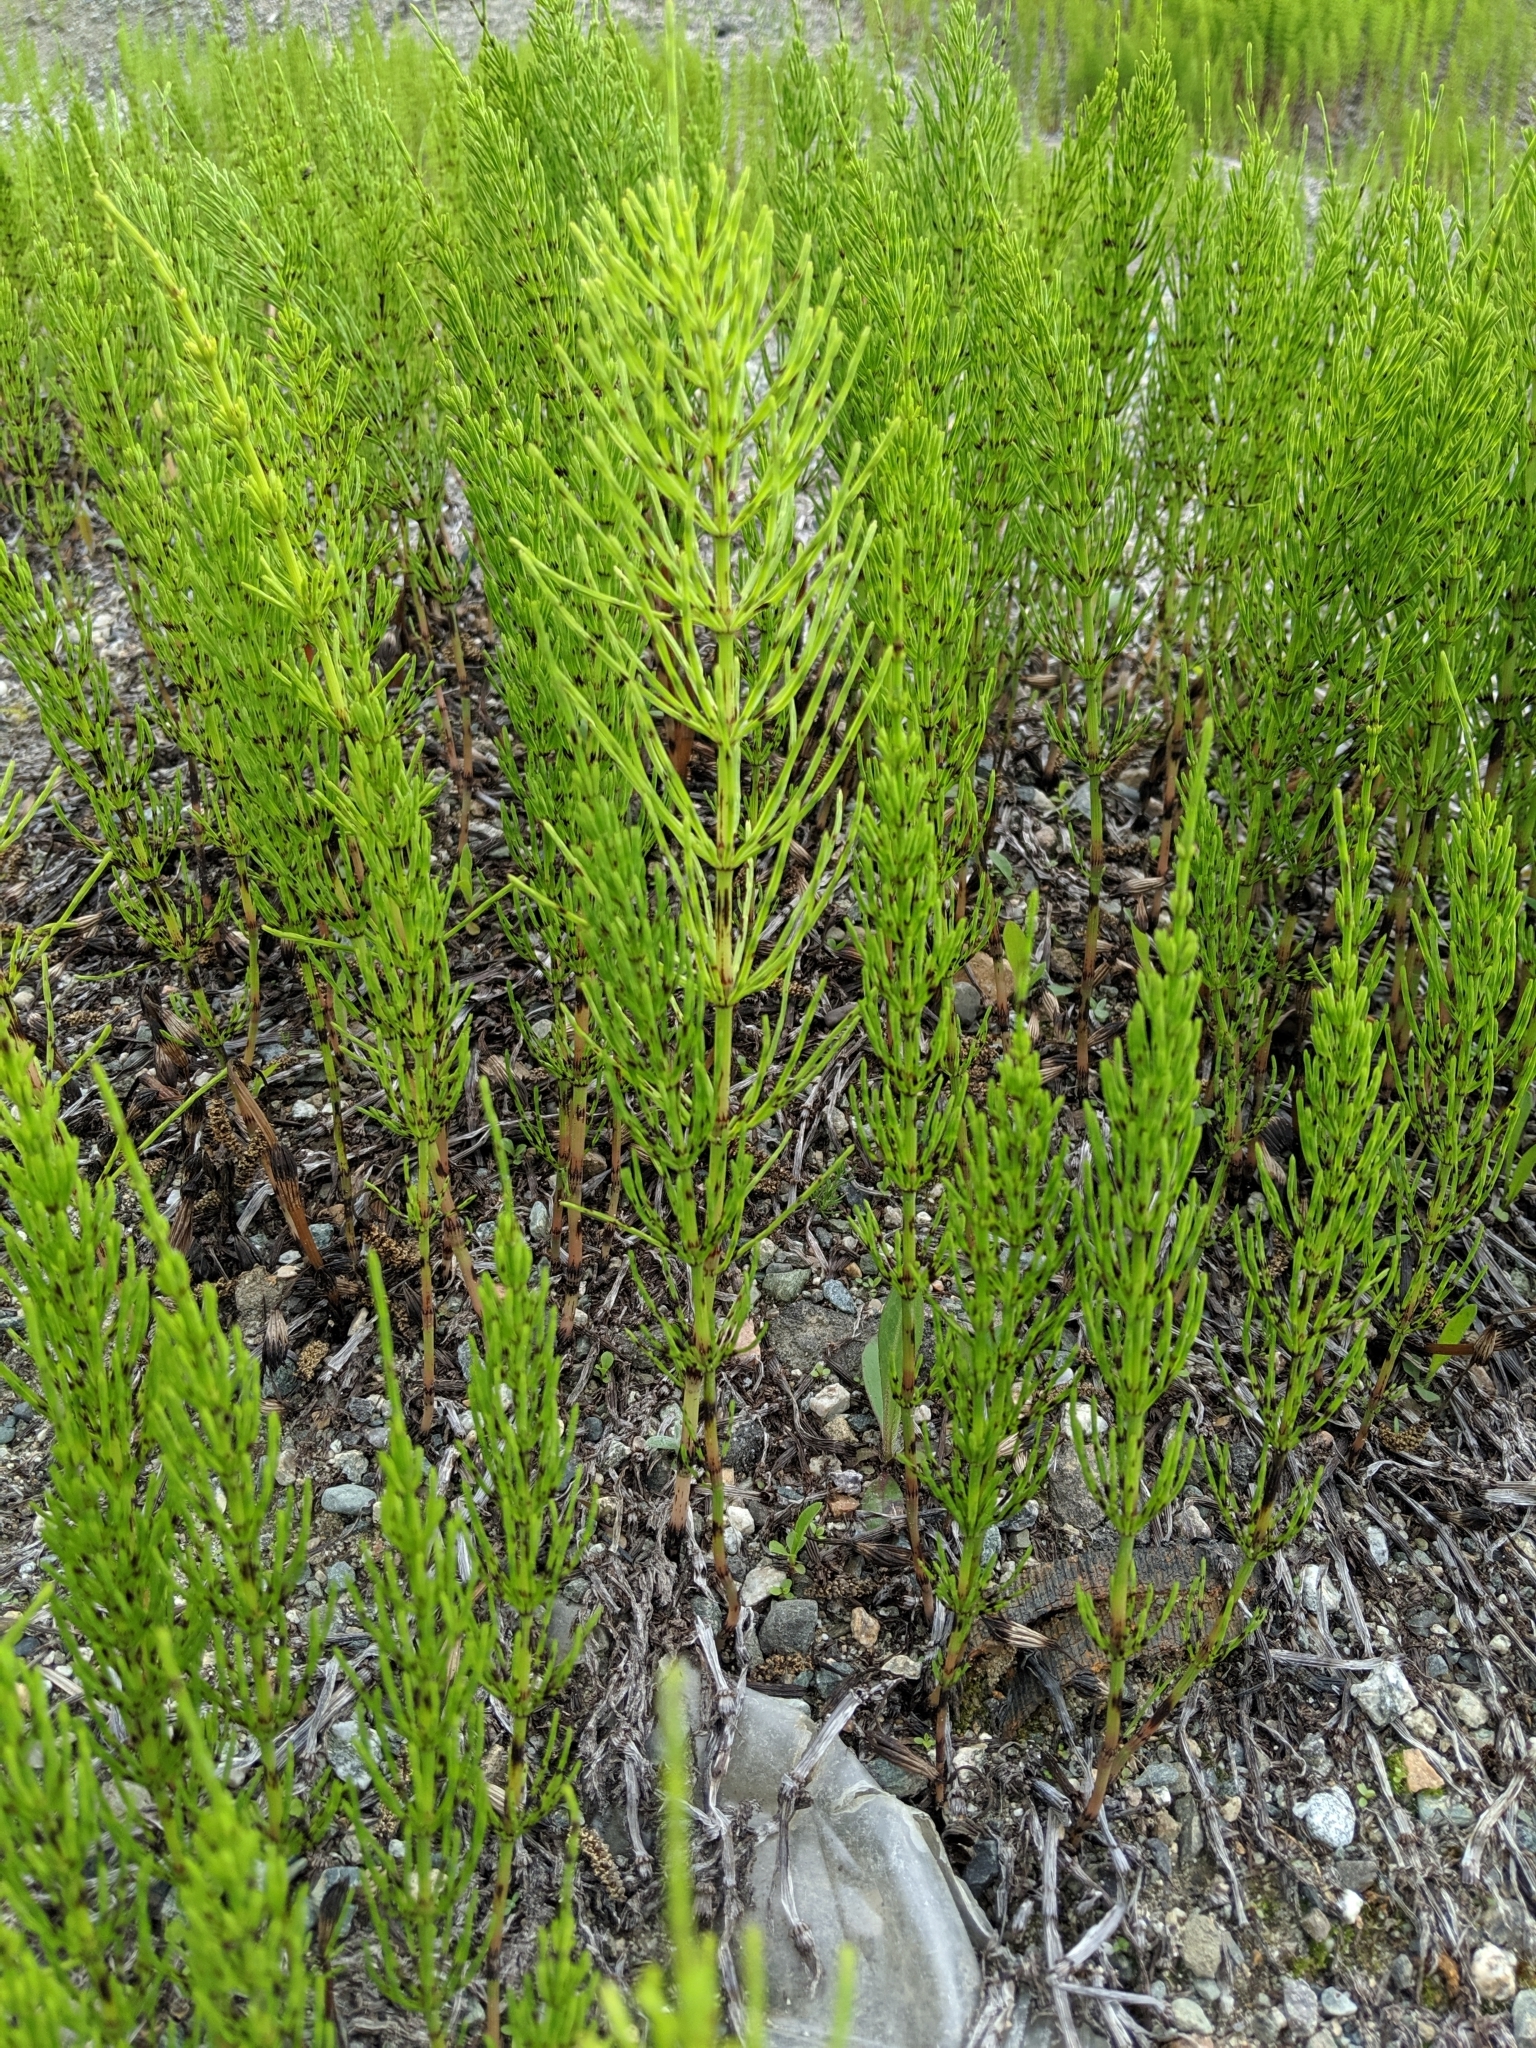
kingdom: Plantae
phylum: Tracheophyta
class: Polypodiopsida
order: Equisetales
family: Equisetaceae
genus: Equisetum
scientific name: Equisetum arvense
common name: Field horsetail
